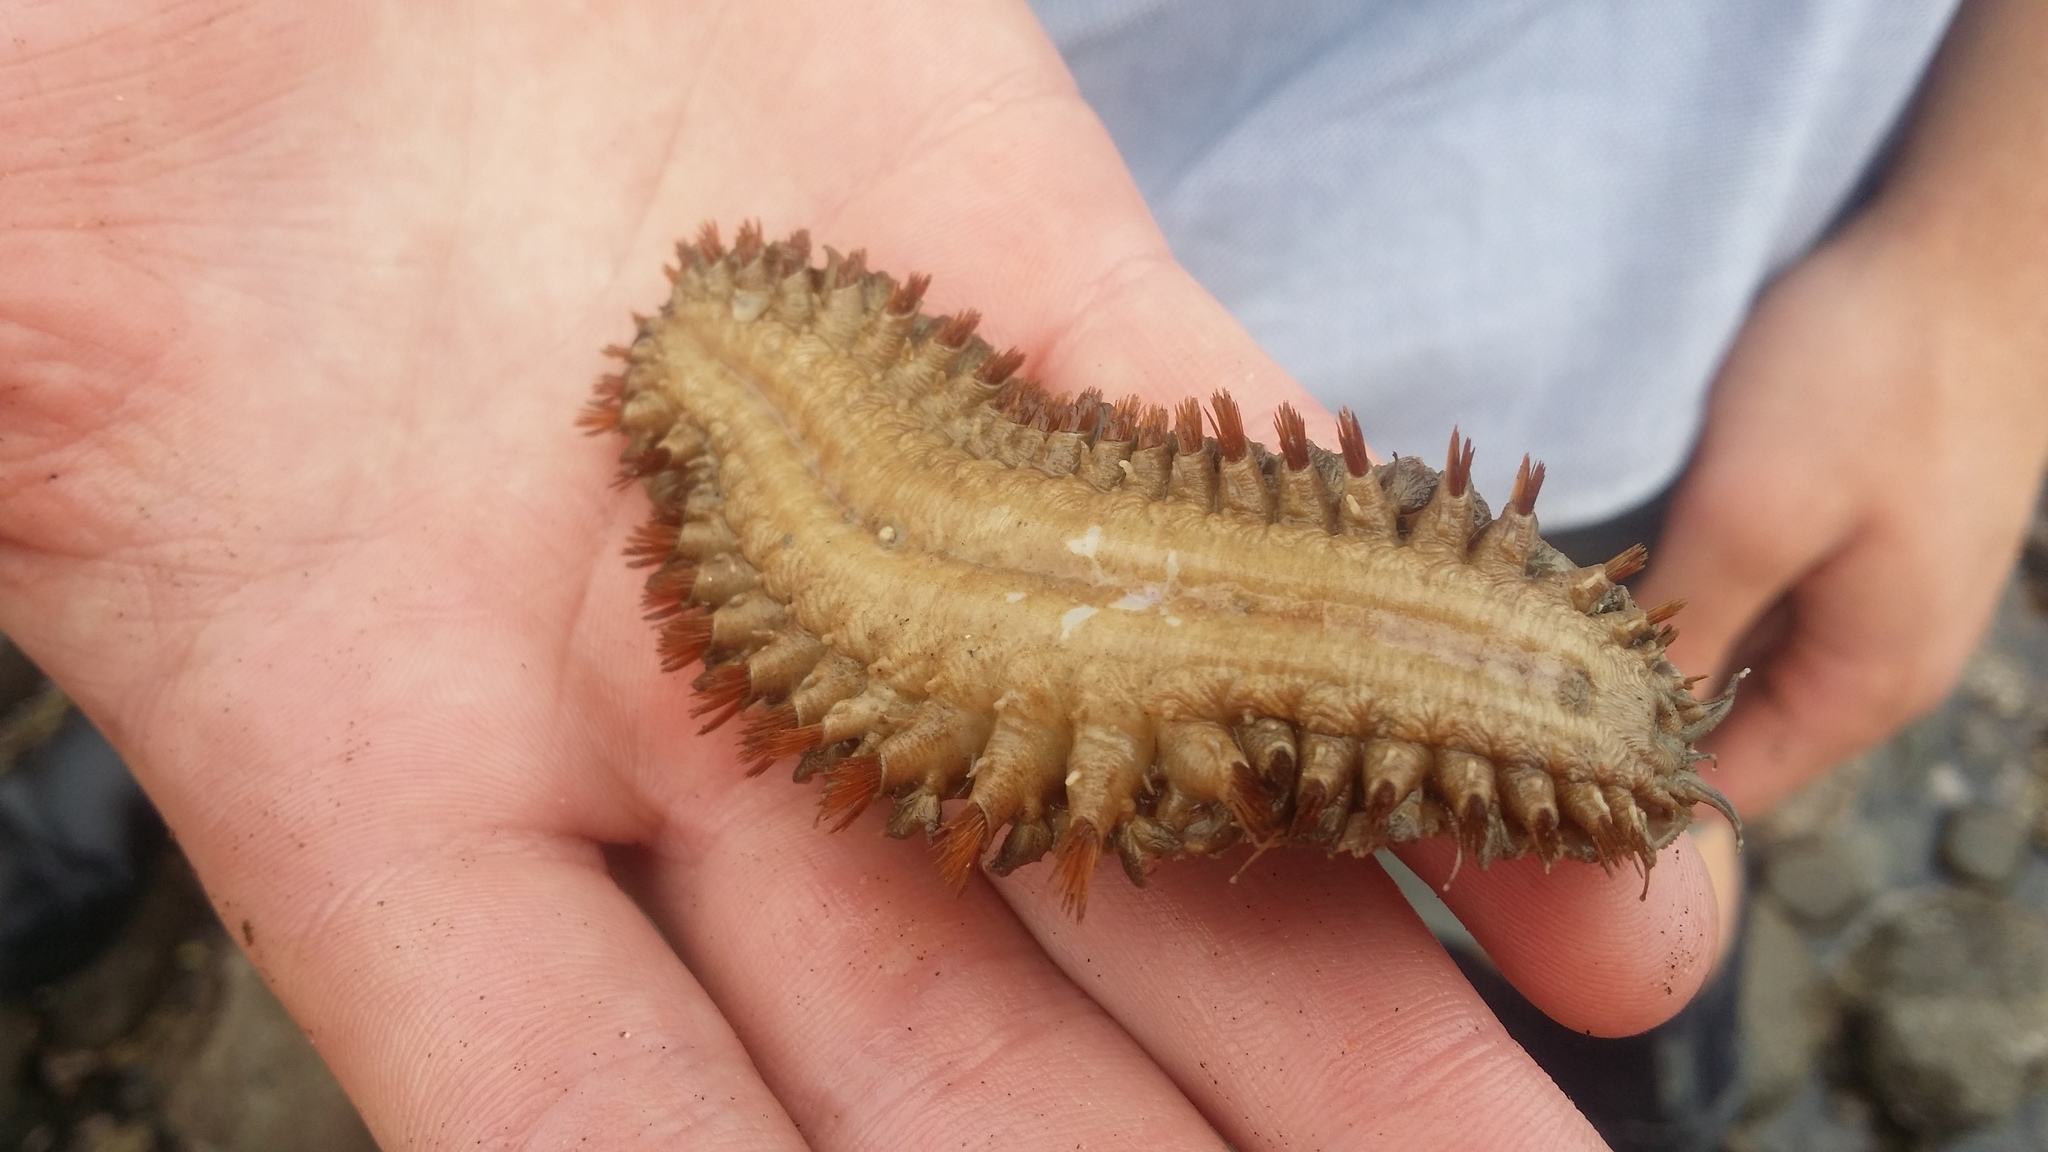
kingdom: Animalia
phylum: Annelida
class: Polychaeta
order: Phyllodocida
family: Polynoidae
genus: Euphione
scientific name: Euphione squamosa
